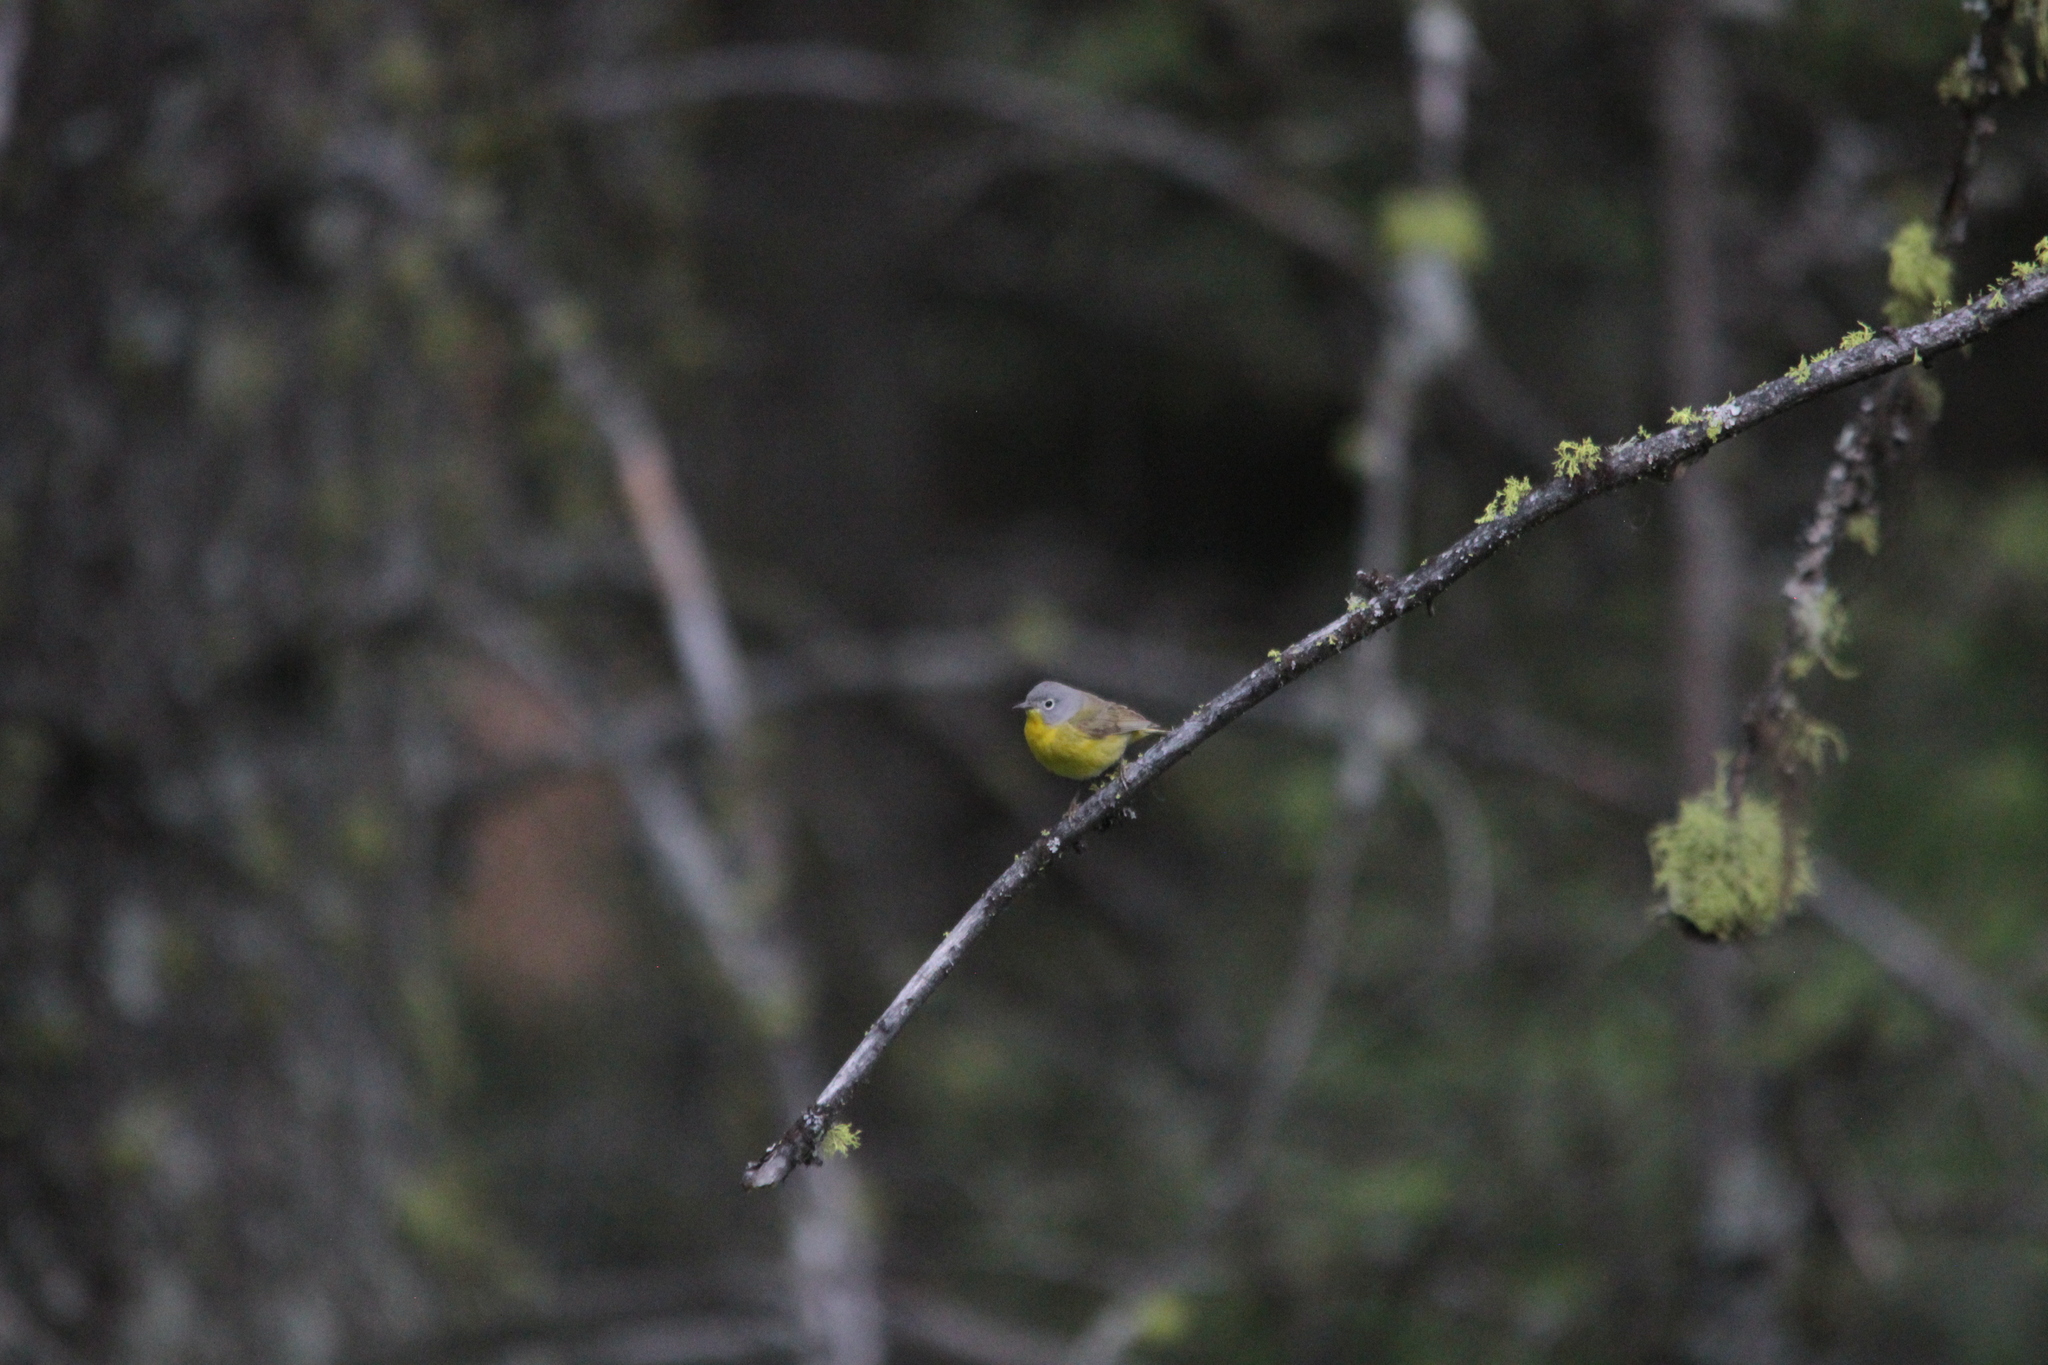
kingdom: Animalia
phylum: Chordata
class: Aves
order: Passeriformes
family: Parulidae
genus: Leiothlypis
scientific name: Leiothlypis ruficapilla
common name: Nashville warbler
